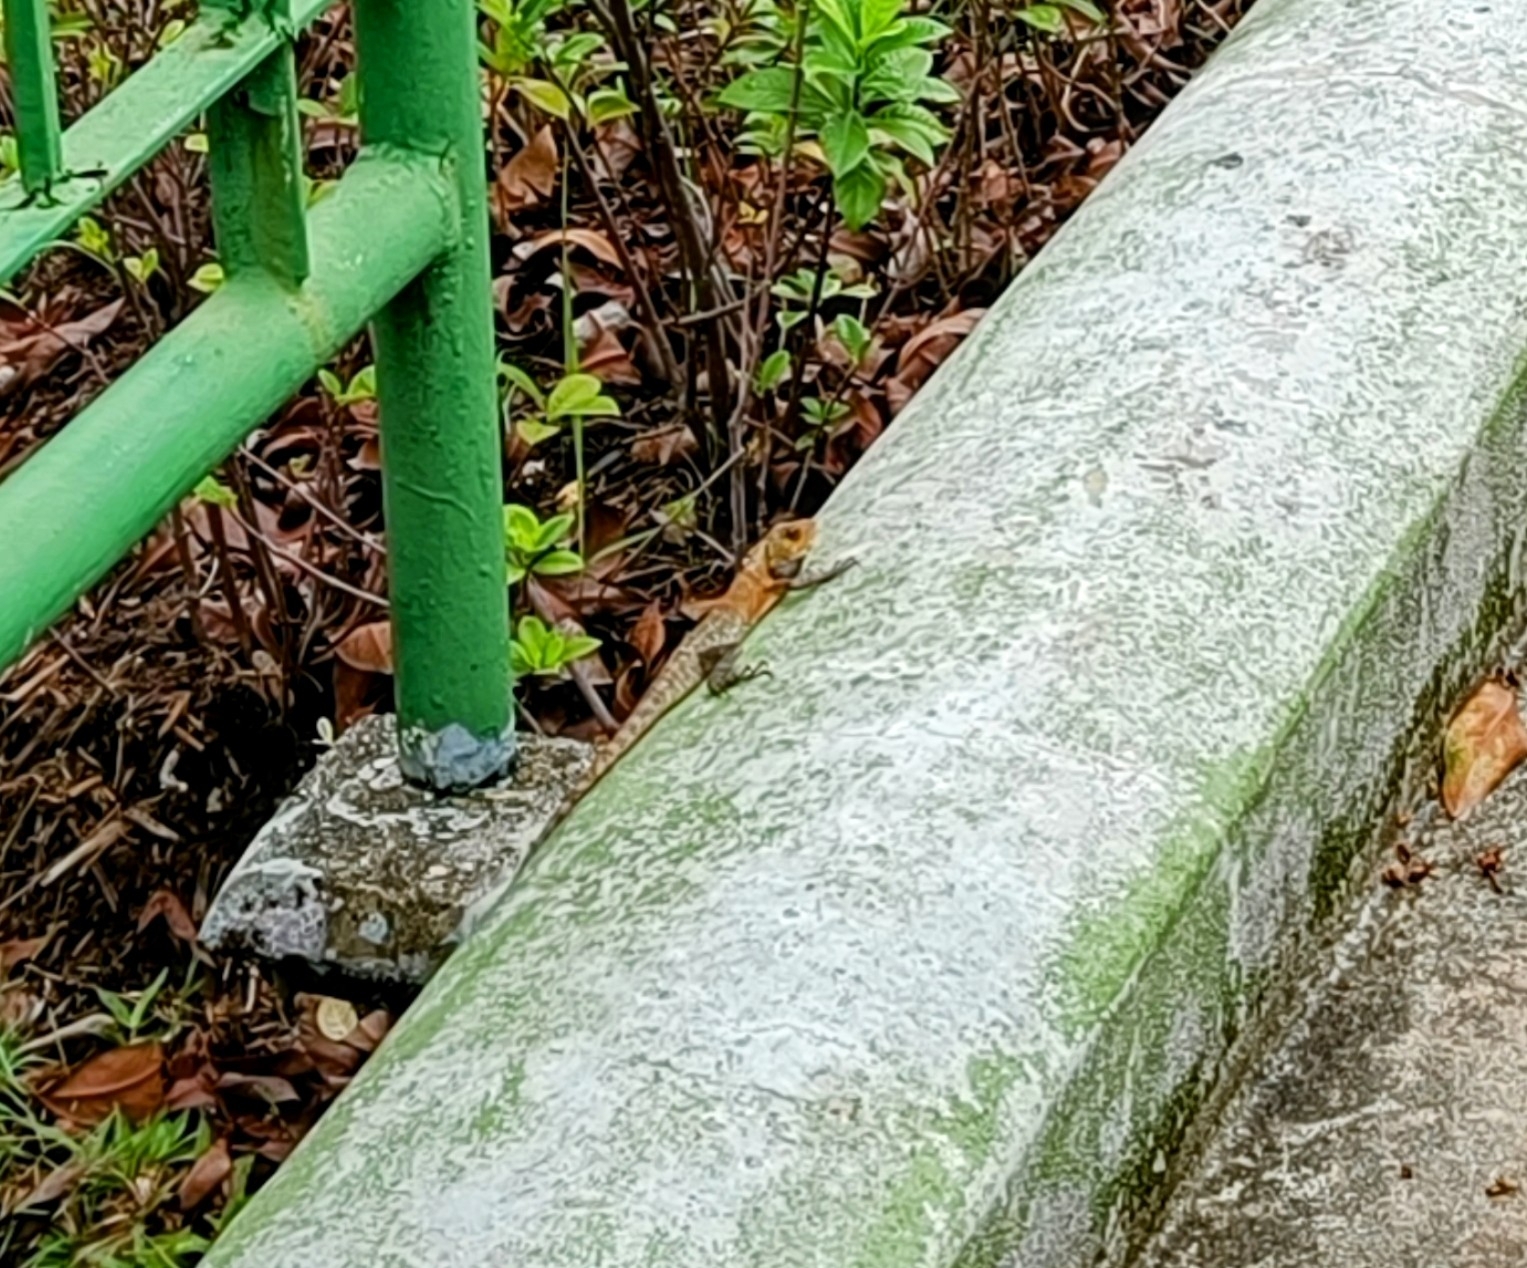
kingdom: Animalia
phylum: Chordata
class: Squamata
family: Agamidae
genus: Calotes
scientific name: Calotes versicolor
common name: Oriental garden lizard
